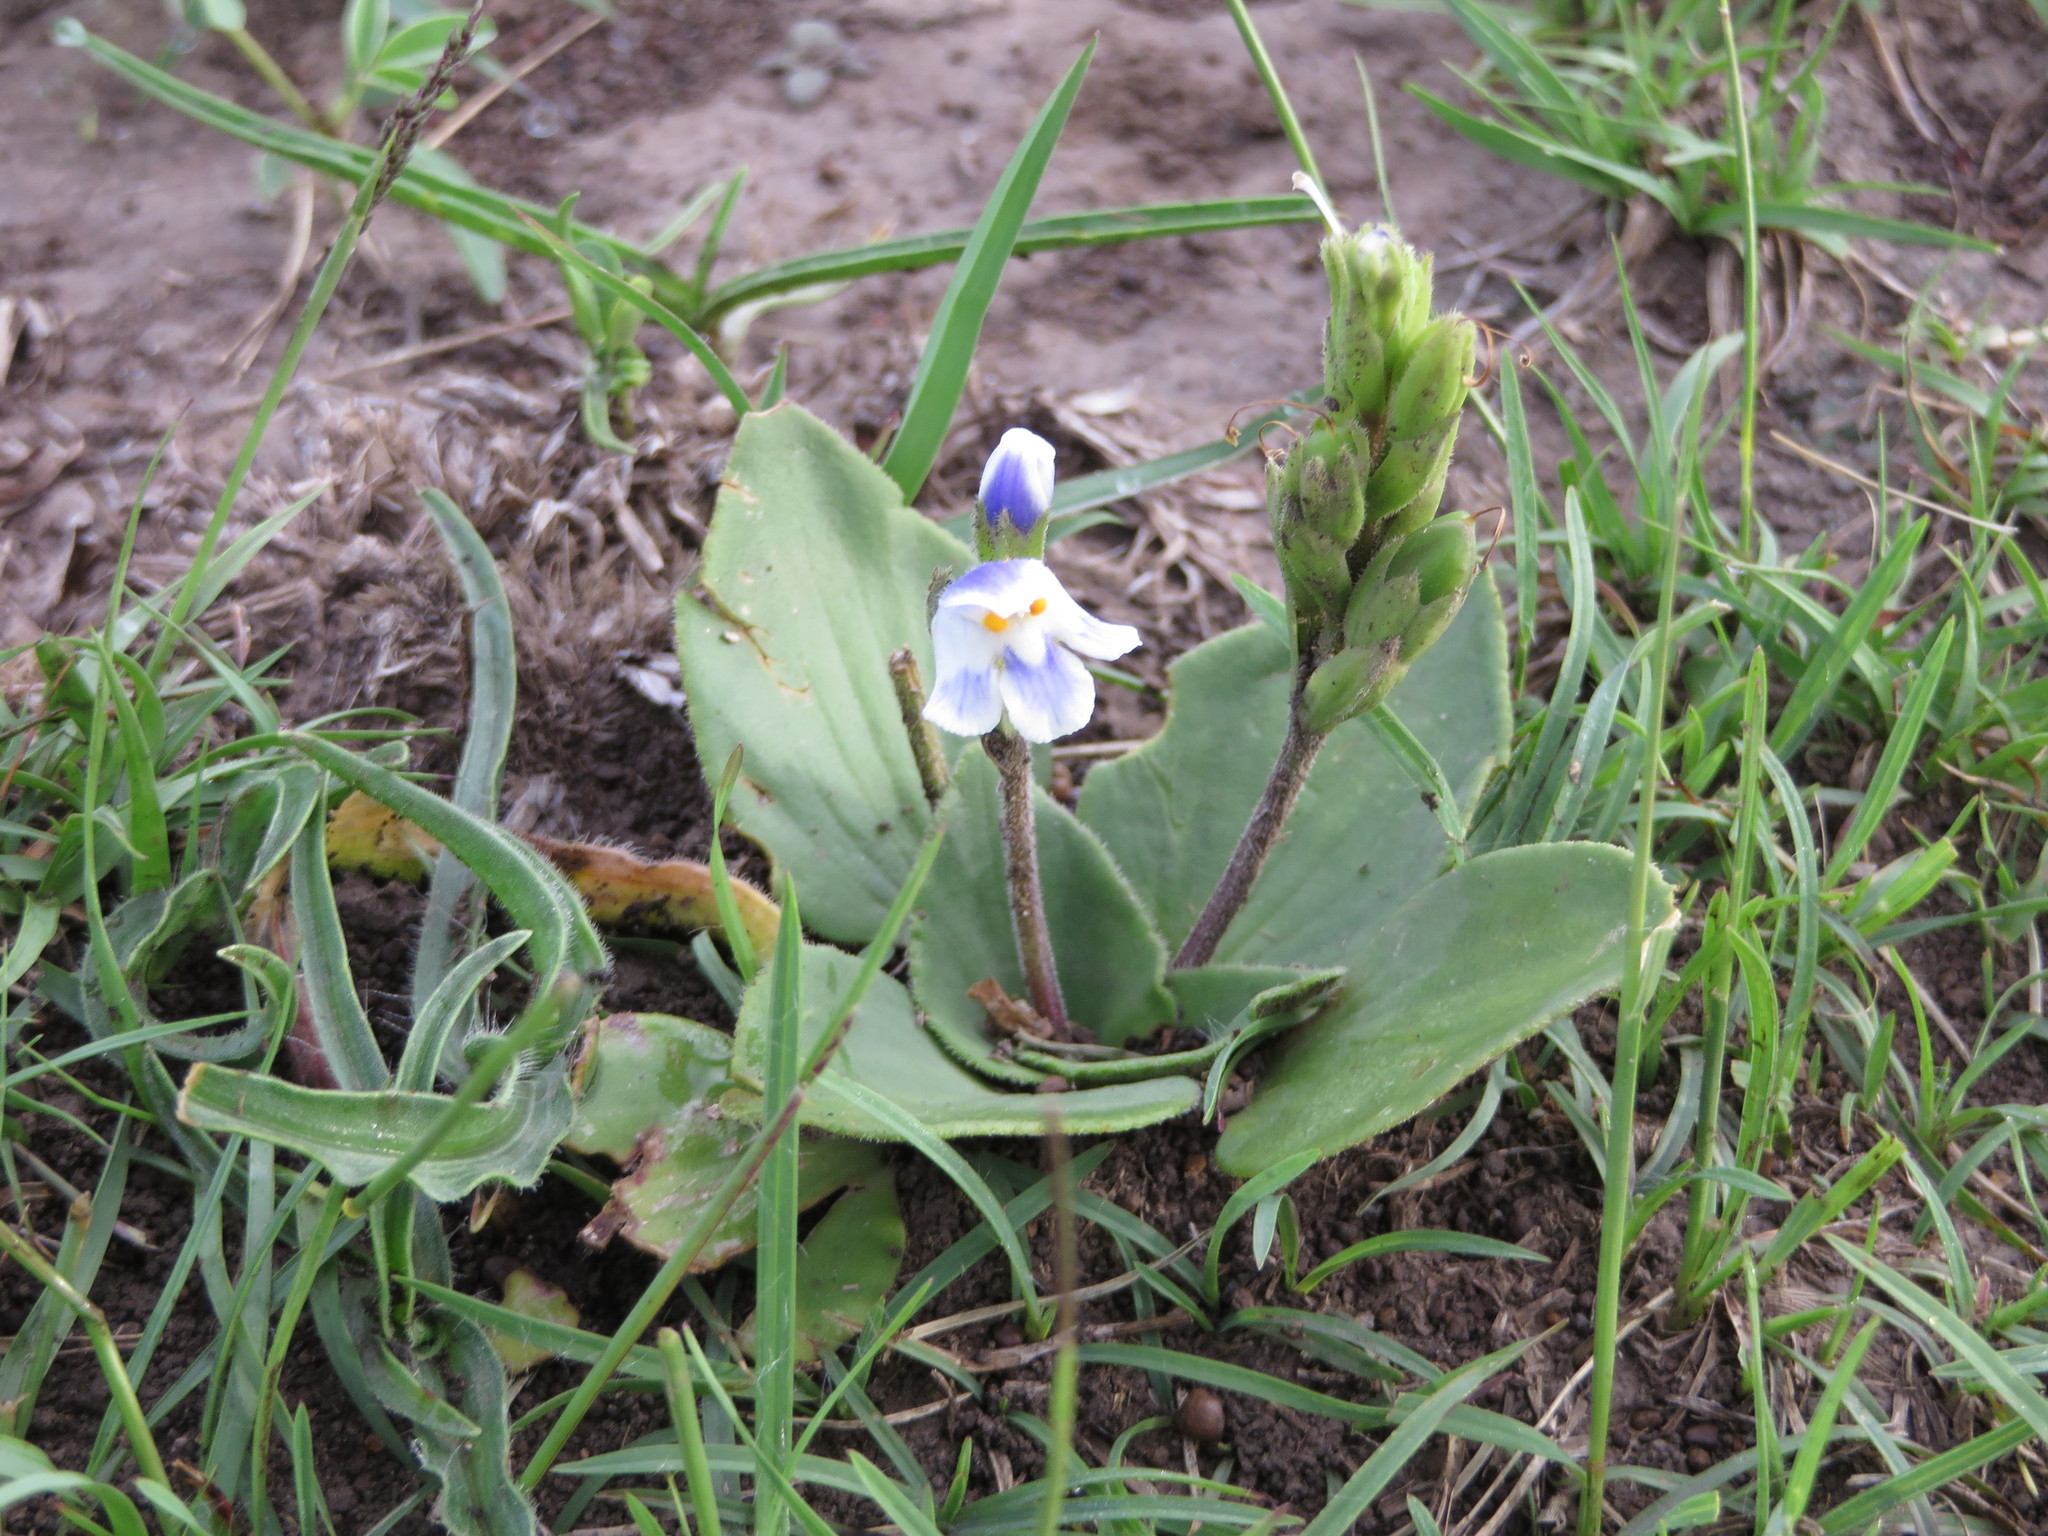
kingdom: Plantae
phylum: Tracheophyta
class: Magnoliopsida
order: Lamiales
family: Linderniaceae
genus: Craterostigma
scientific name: Craterostigma plantagineum
